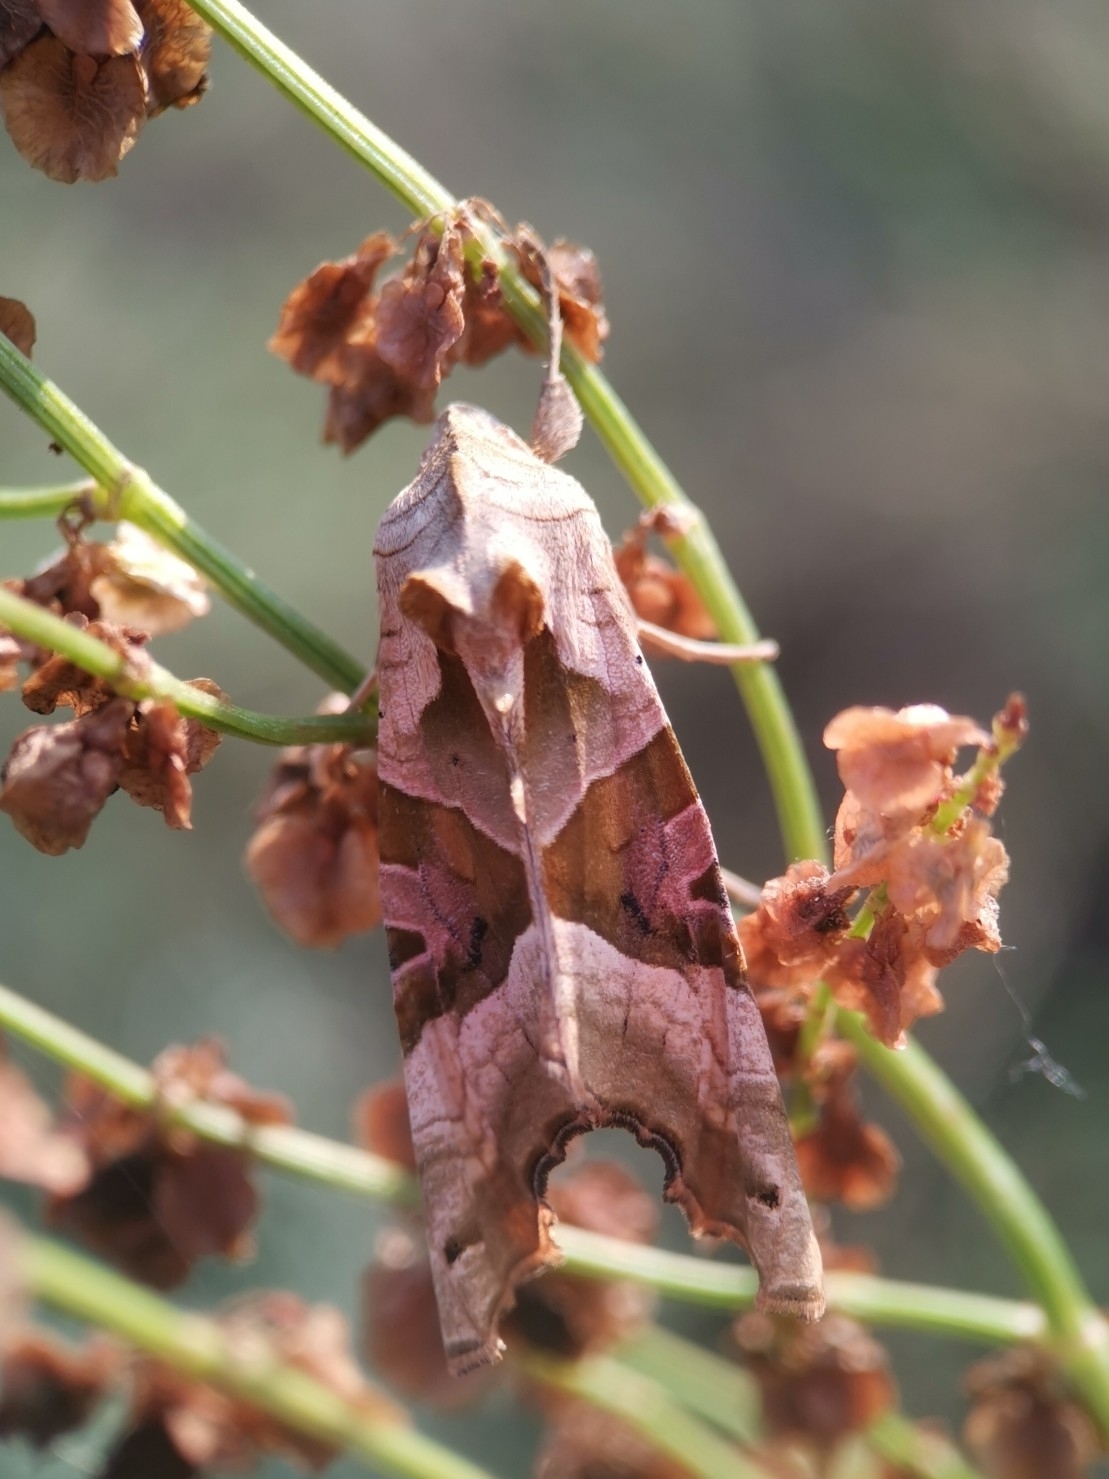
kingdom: Animalia
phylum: Arthropoda
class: Insecta
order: Lepidoptera
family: Noctuidae
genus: Phlogophora
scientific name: Phlogophora meticulosa
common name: Angle shades
